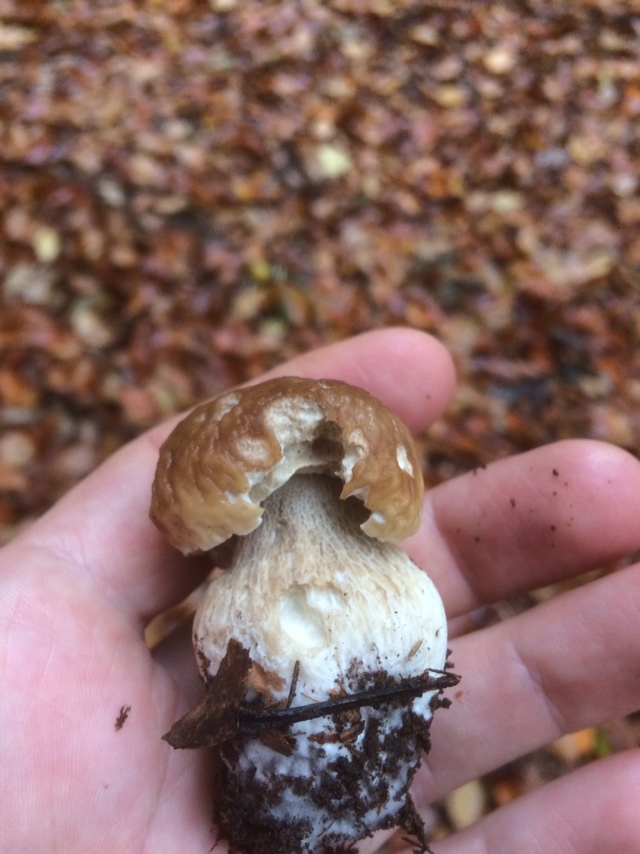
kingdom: Fungi
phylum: Basidiomycota
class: Agaricomycetes
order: Boletales
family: Boletaceae
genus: Boletus
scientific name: Boletus edulis
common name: Cep
